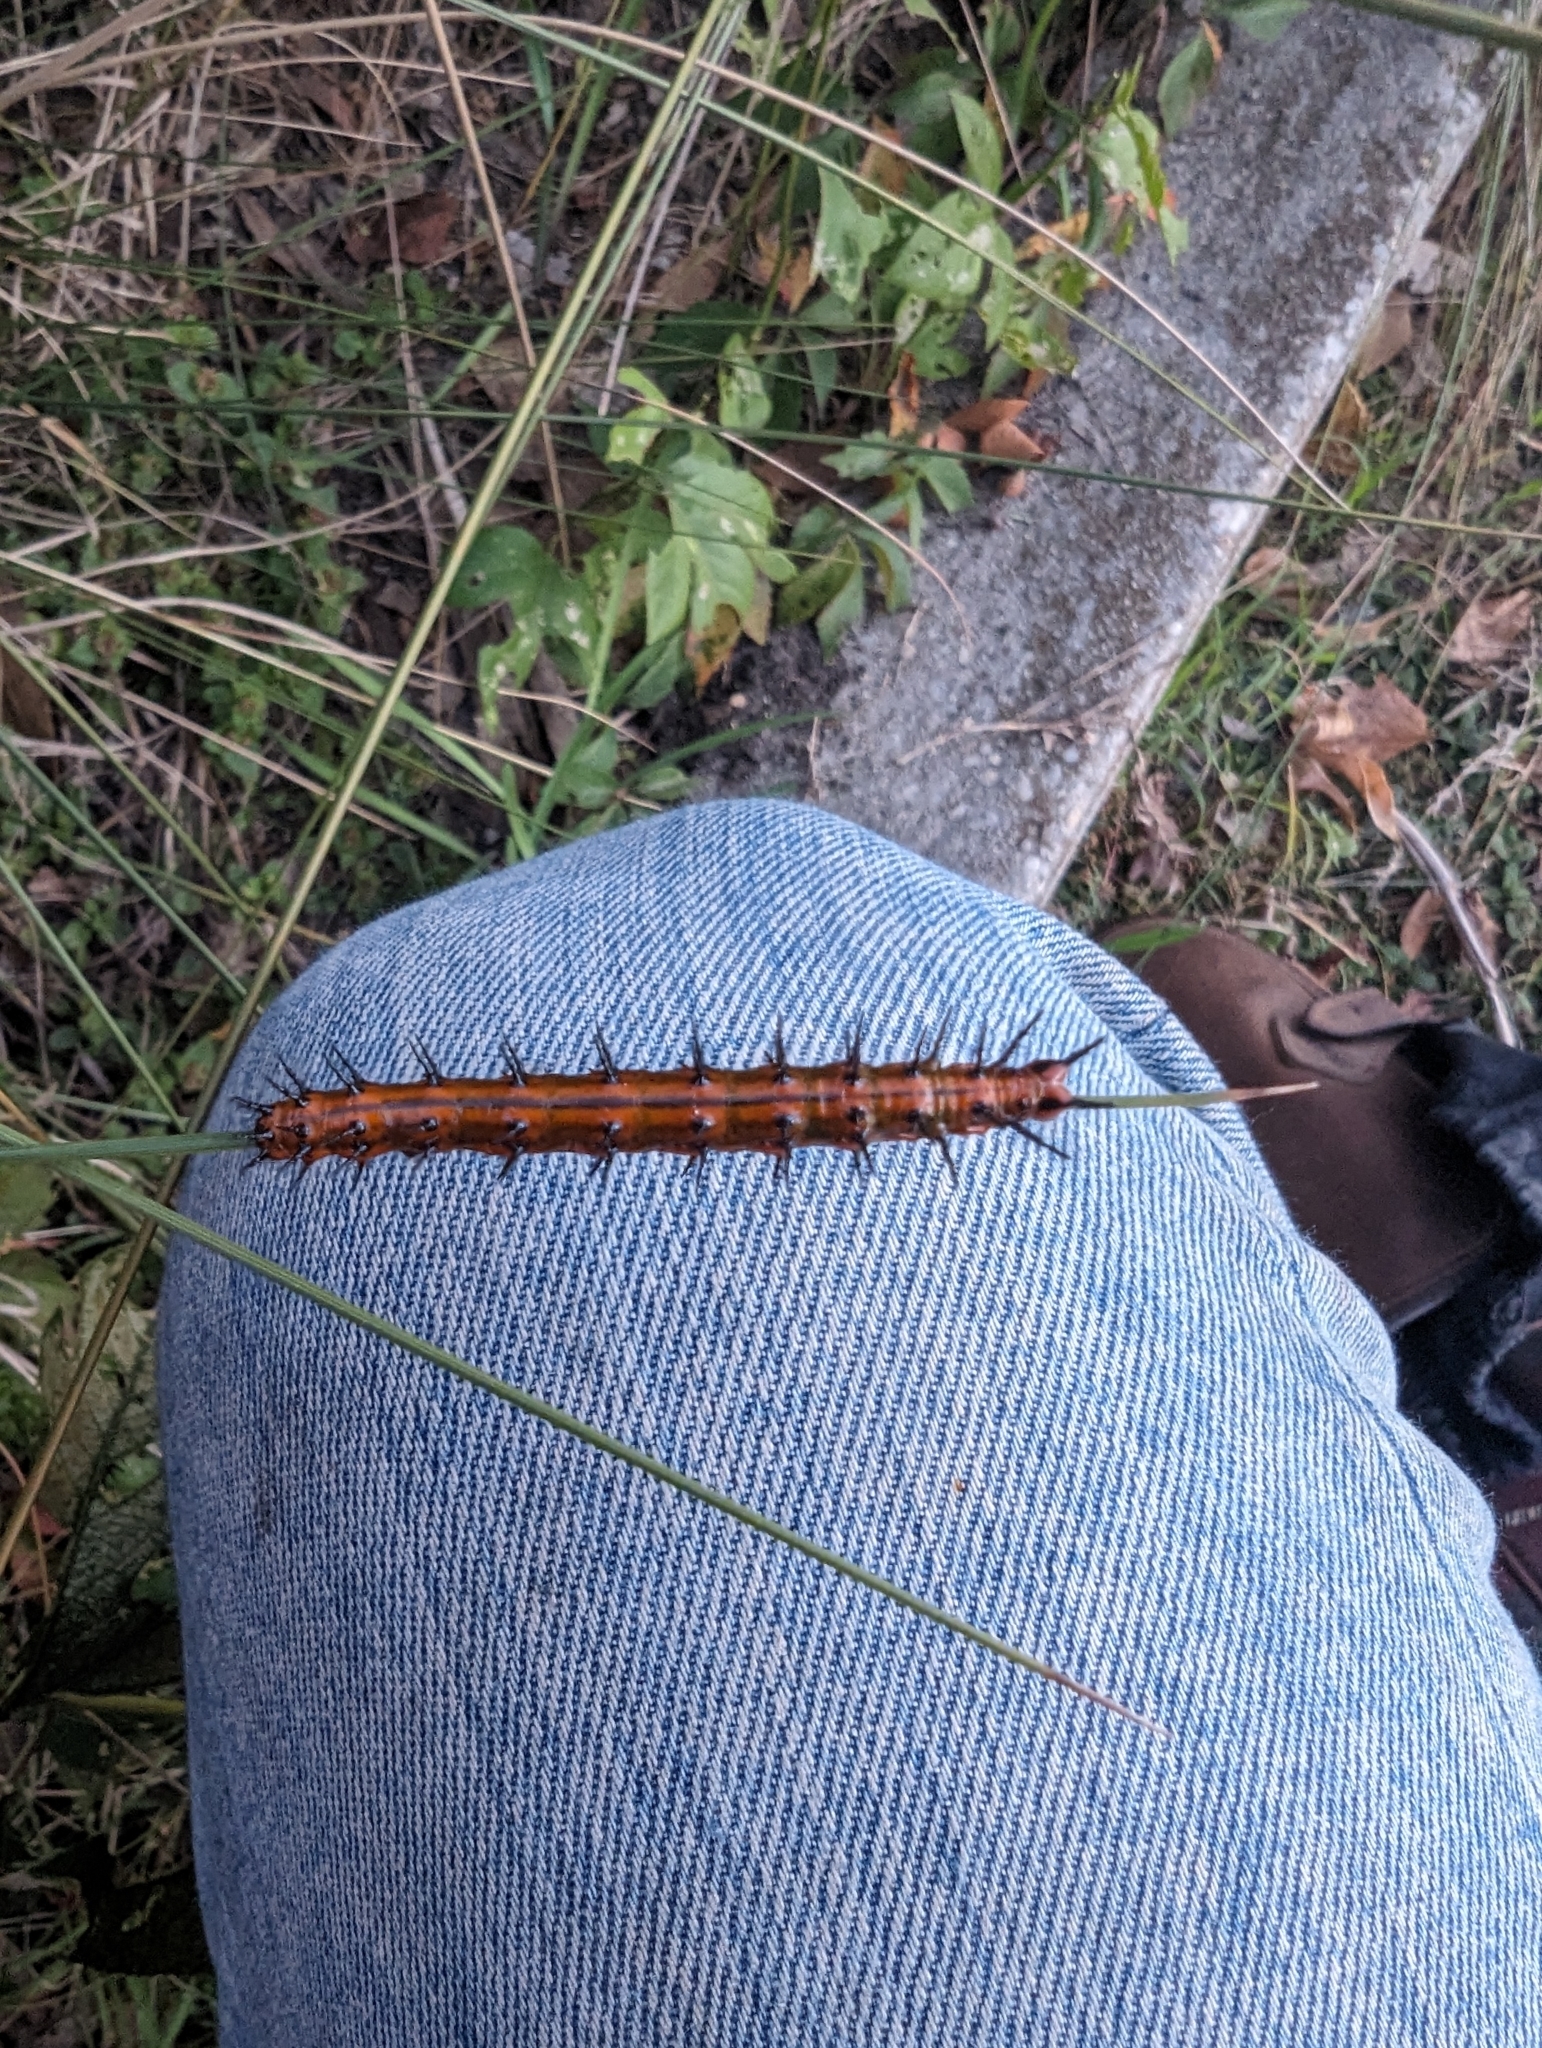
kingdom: Animalia
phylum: Arthropoda
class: Insecta
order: Lepidoptera
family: Nymphalidae
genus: Dione
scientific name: Dione vanillae
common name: Gulf fritillary
